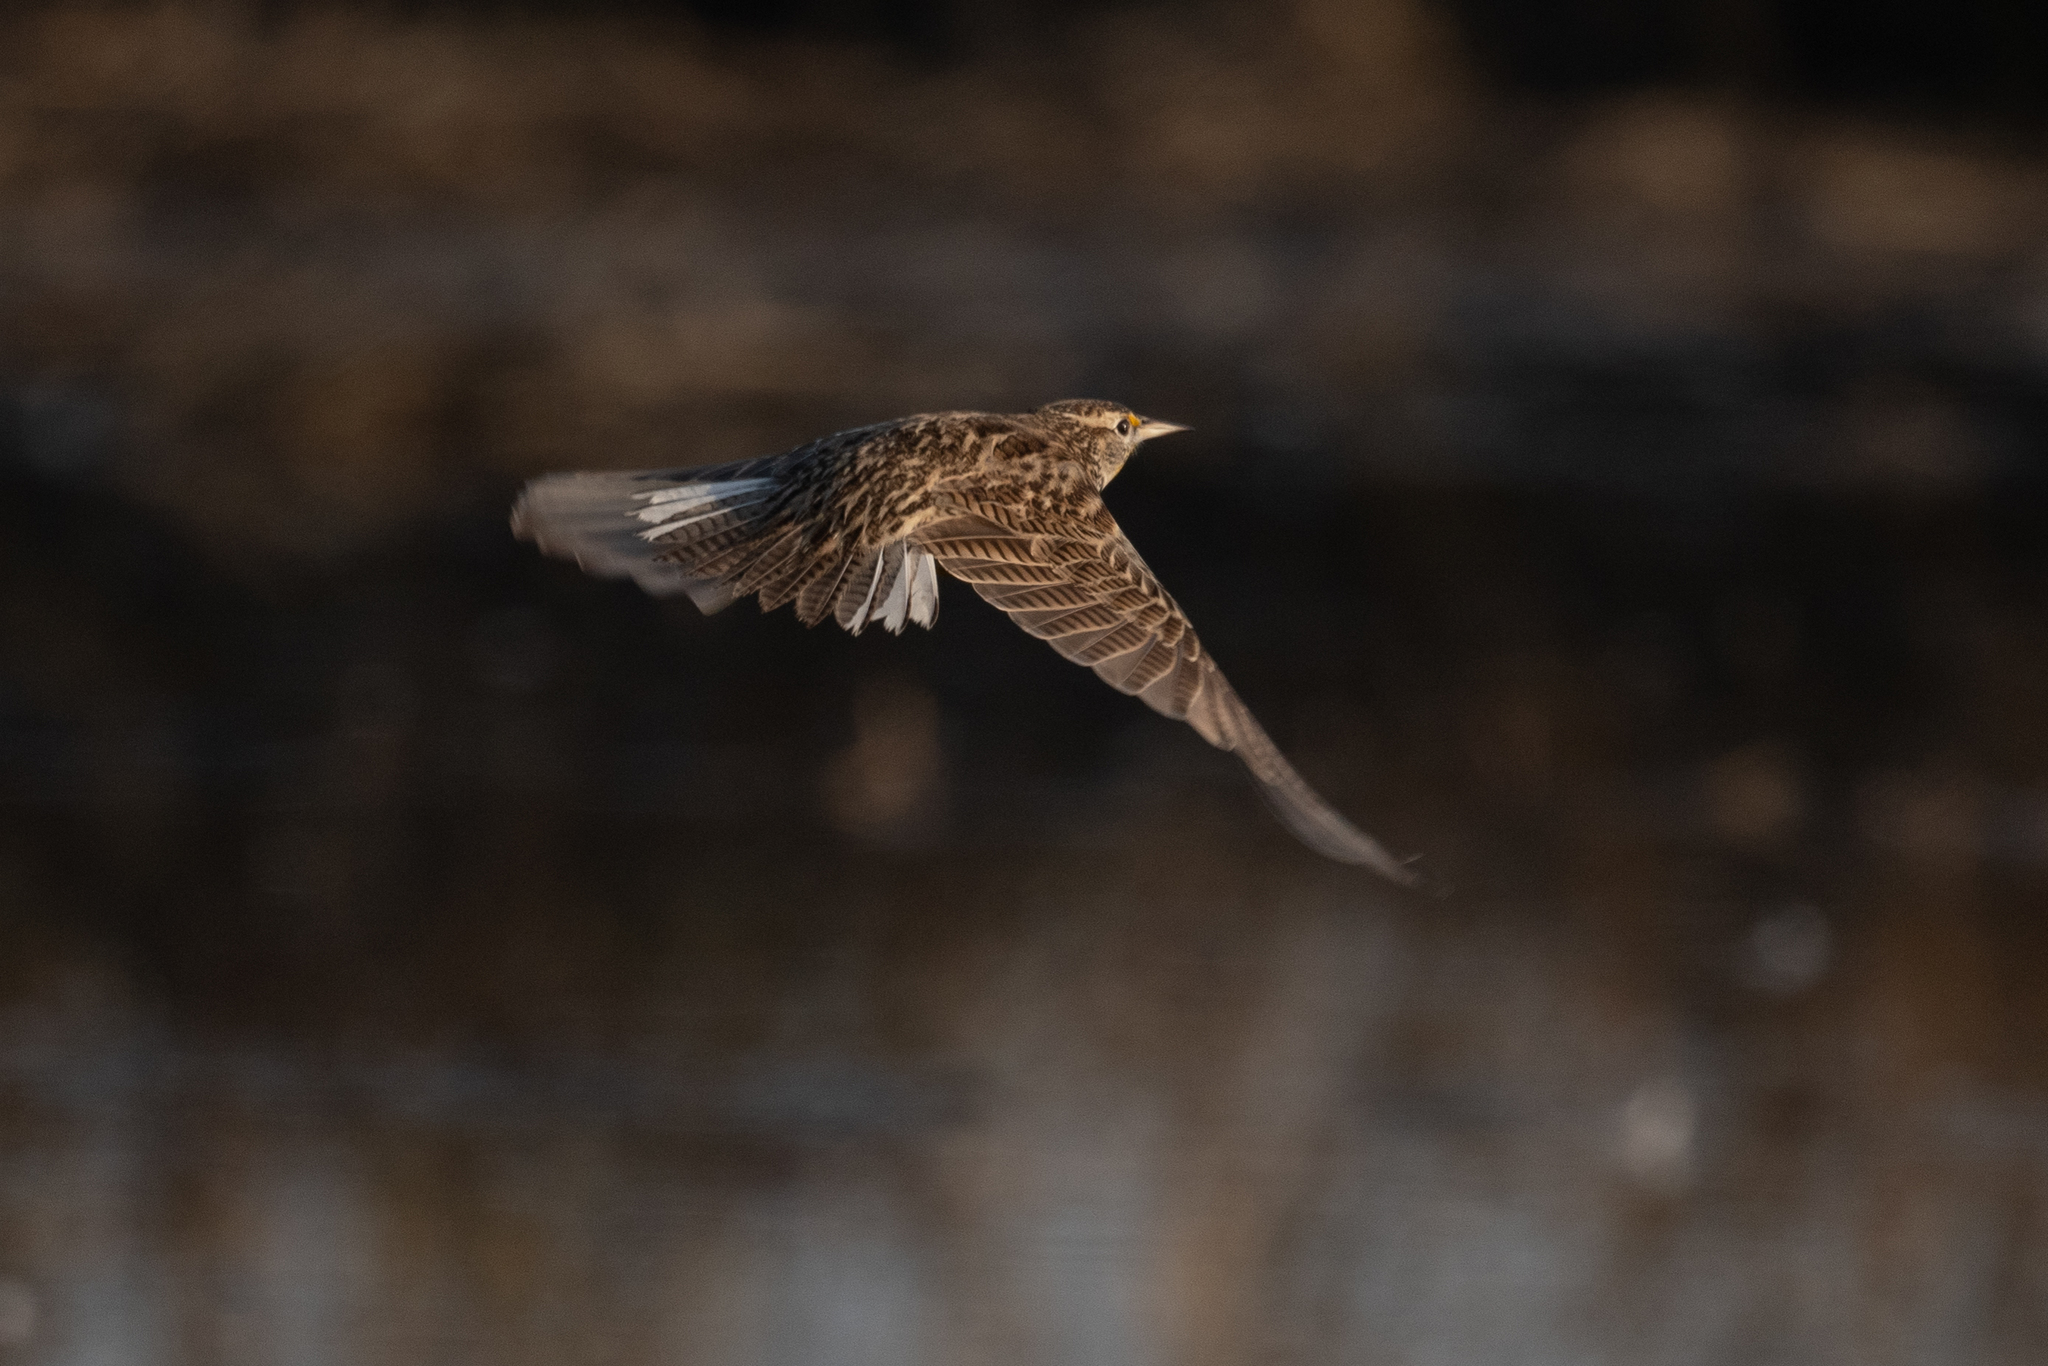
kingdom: Animalia
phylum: Chordata
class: Aves
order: Passeriformes
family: Icteridae
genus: Sturnella
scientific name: Sturnella neglecta
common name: Western meadowlark
